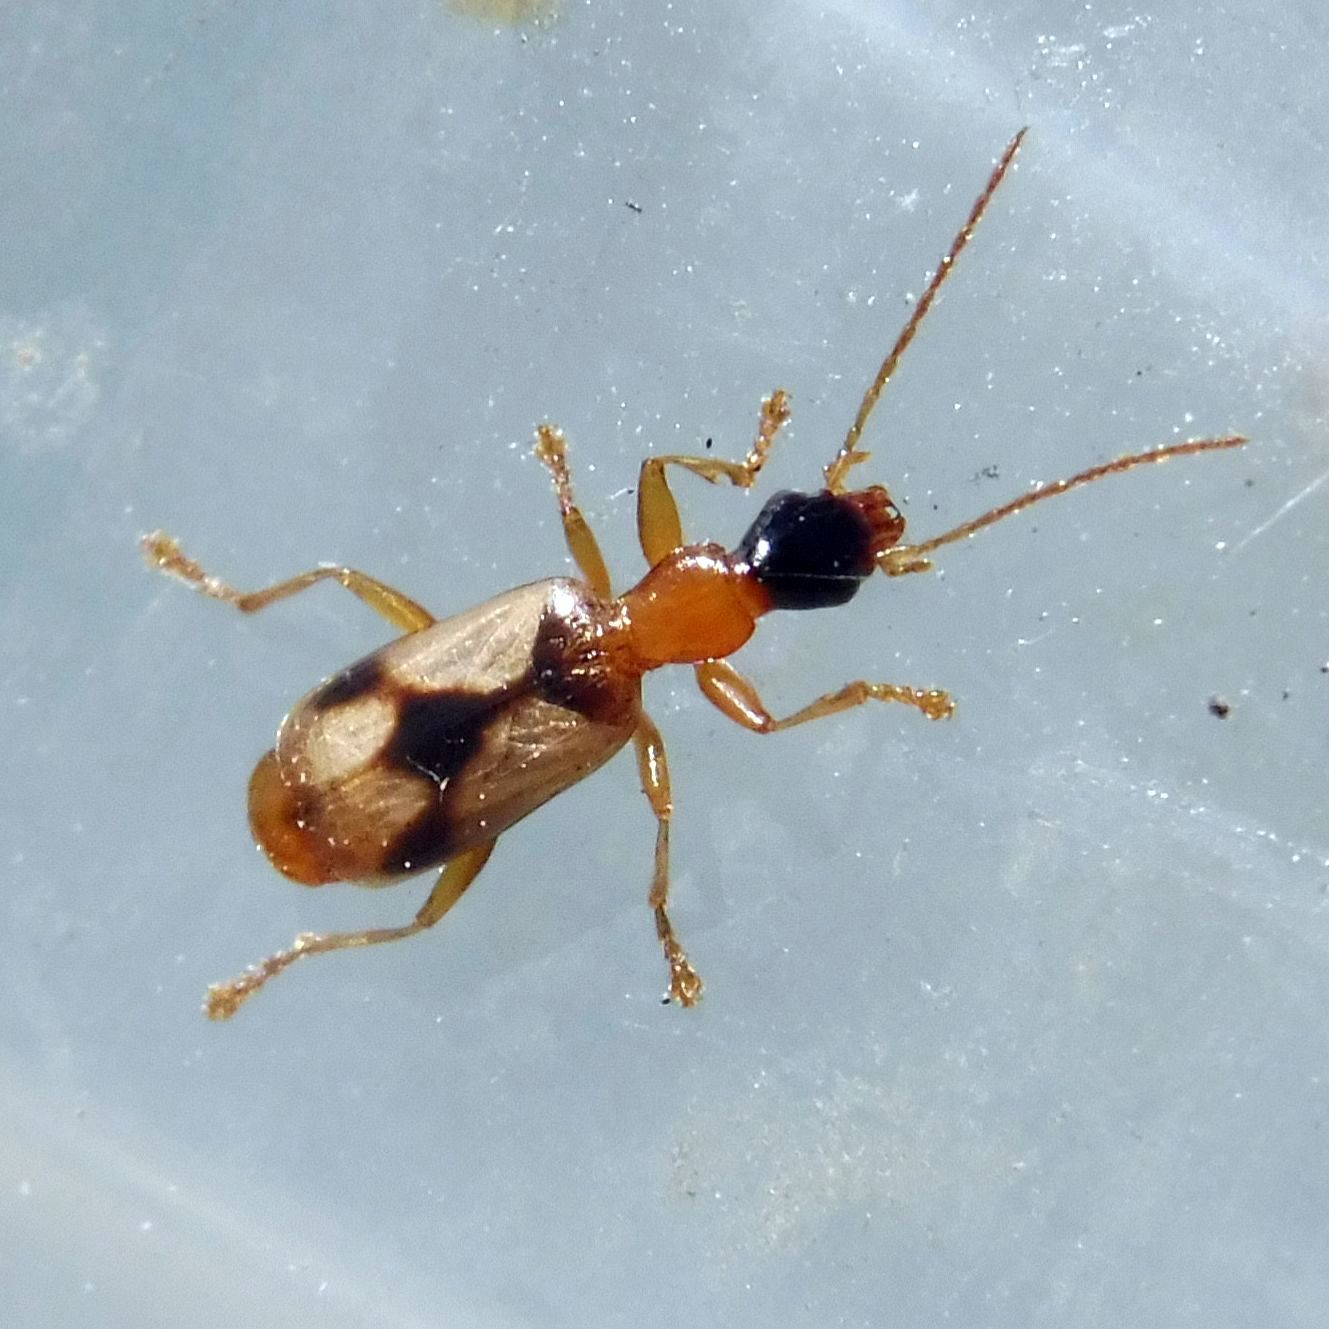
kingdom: Animalia
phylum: Arthropoda
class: Insecta
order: Coleoptera
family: Carabidae
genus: Demetrias
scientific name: Demetrias imperialis
